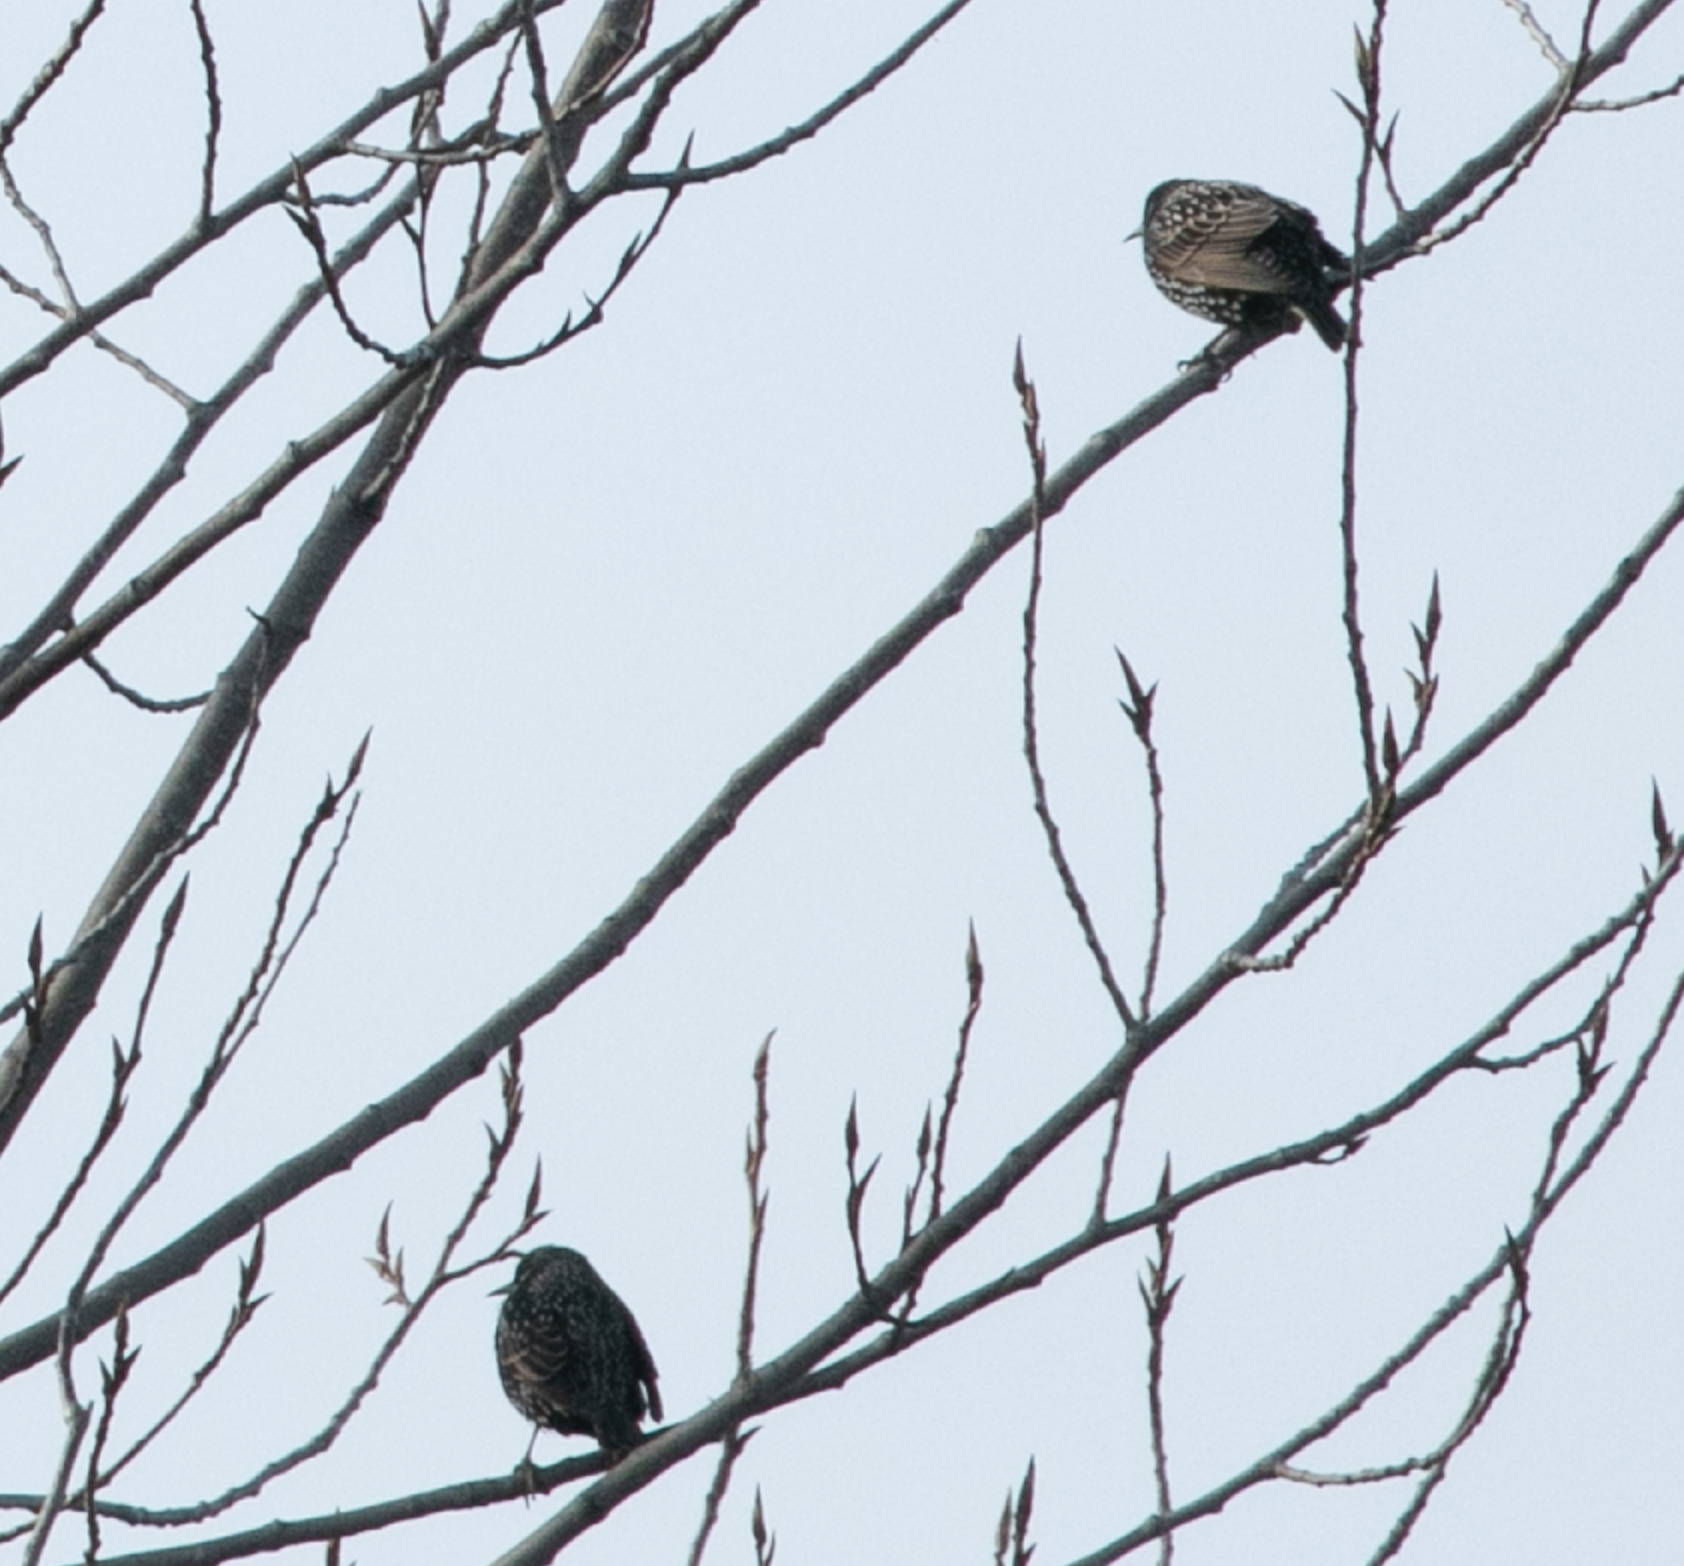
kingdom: Animalia
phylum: Chordata
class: Aves
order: Passeriformes
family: Sturnidae
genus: Sturnus
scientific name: Sturnus vulgaris
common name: Common starling
